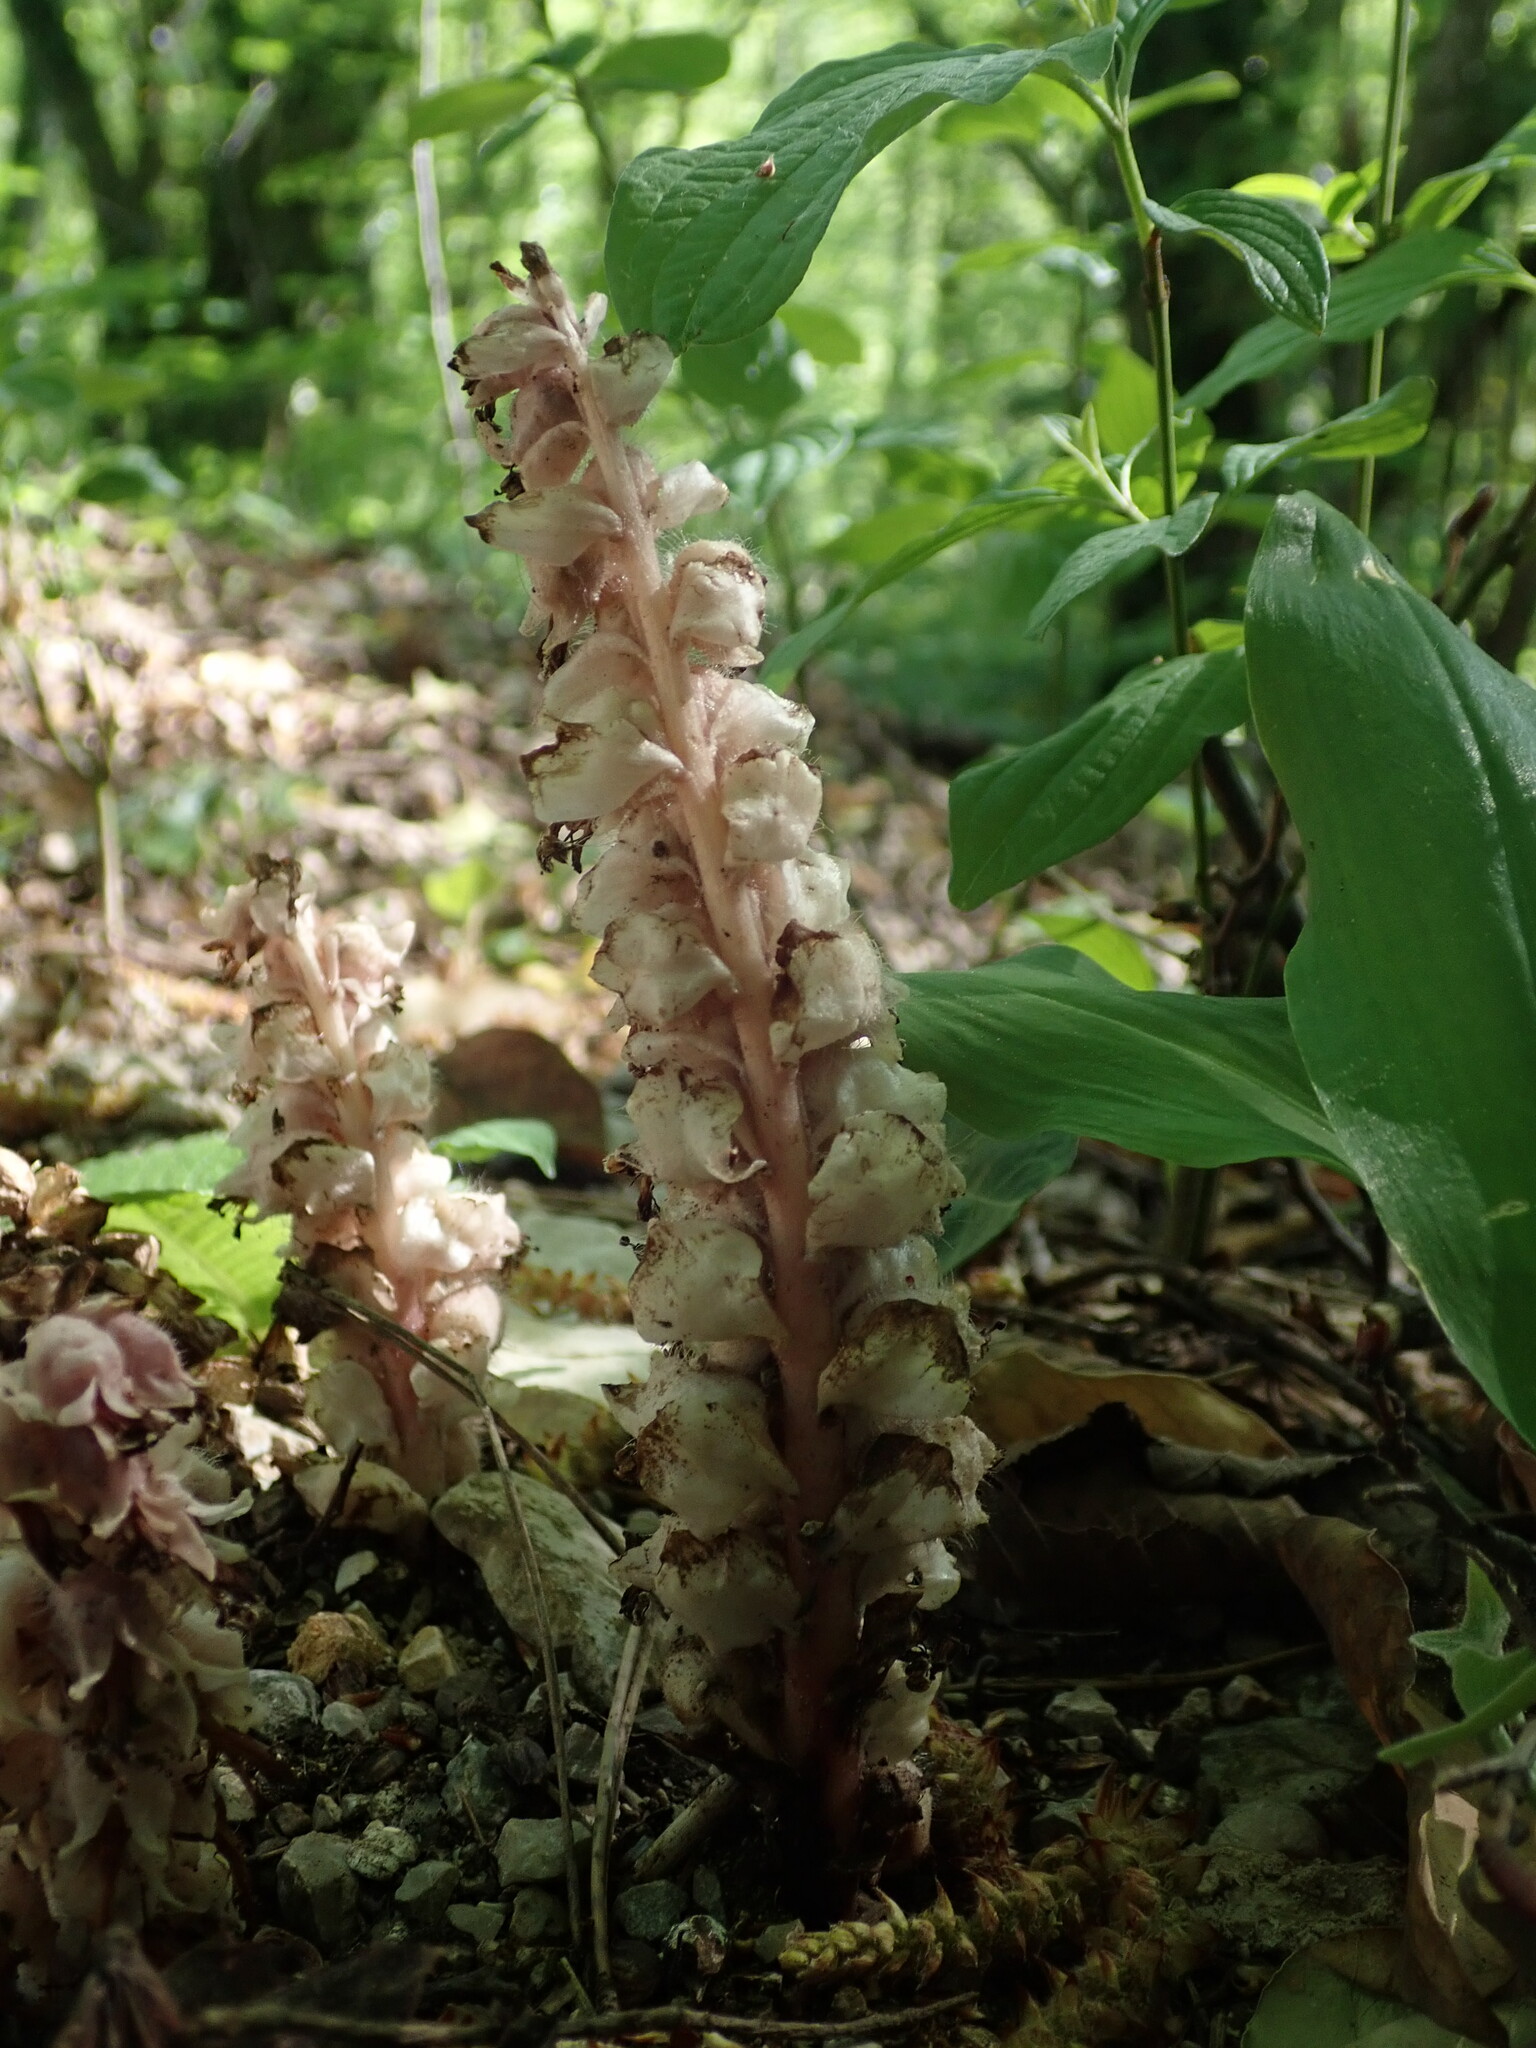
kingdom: Plantae
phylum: Tracheophyta
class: Magnoliopsida
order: Lamiales
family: Orobanchaceae
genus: Lathraea
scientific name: Lathraea squamaria
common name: Toothwort
